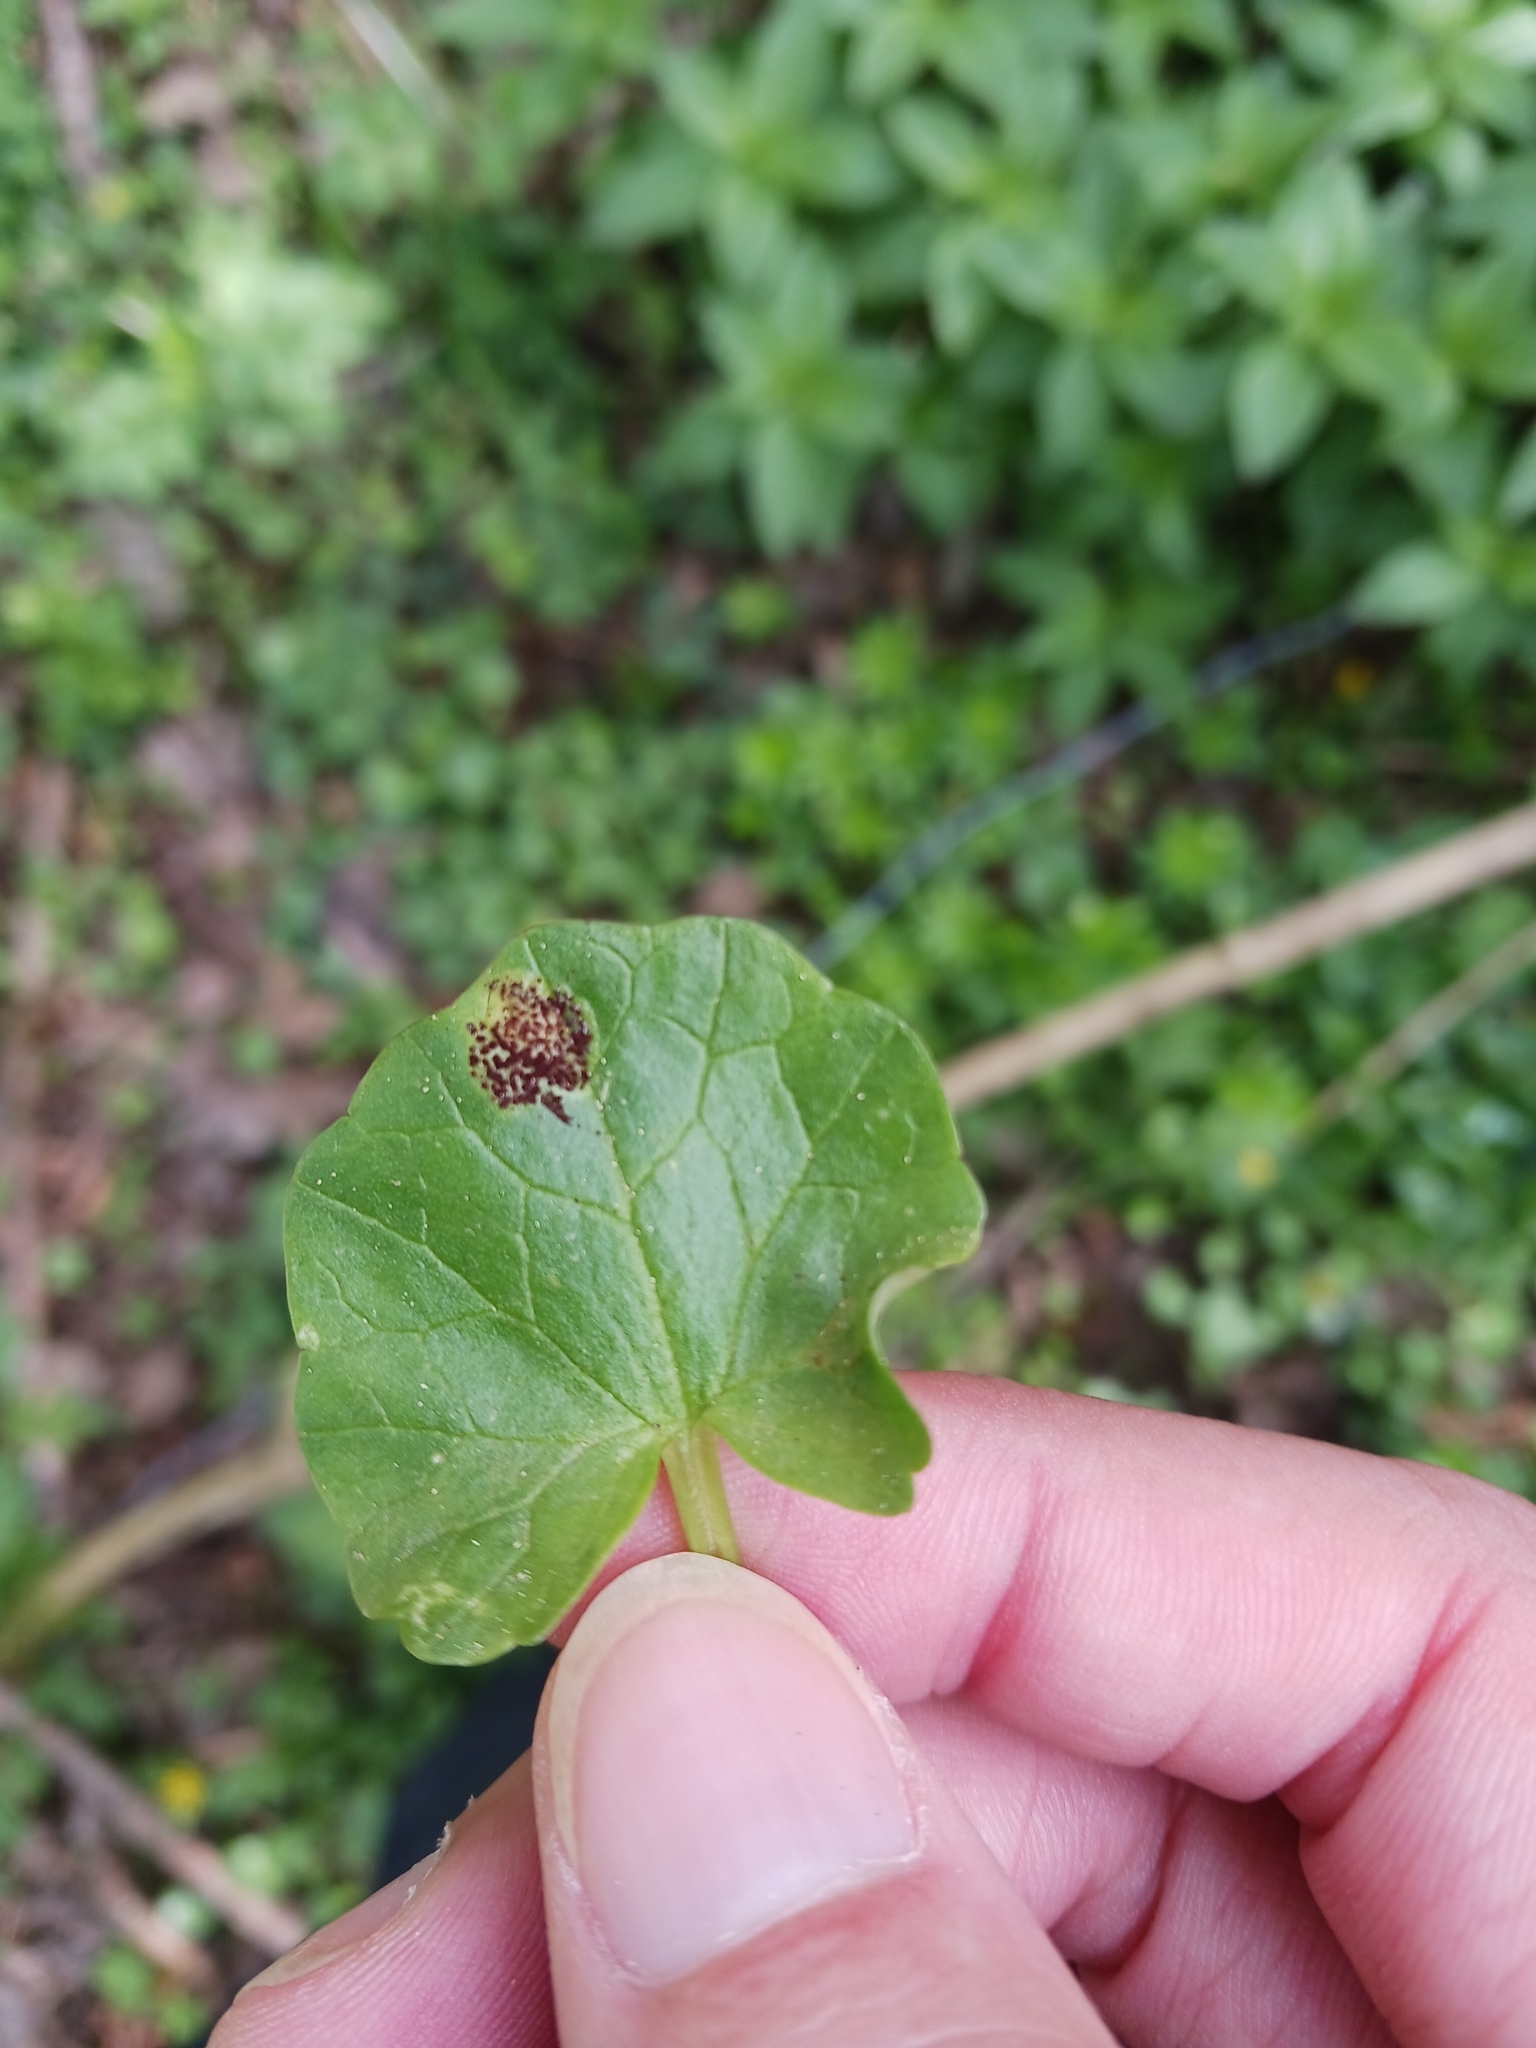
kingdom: Fungi
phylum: Basidiomycota
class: Pucciniomycetes
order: Pucciniales
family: Pucciniaceae
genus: Uromyces
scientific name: Uromyces ficariae
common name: Bitter chocolate rust
